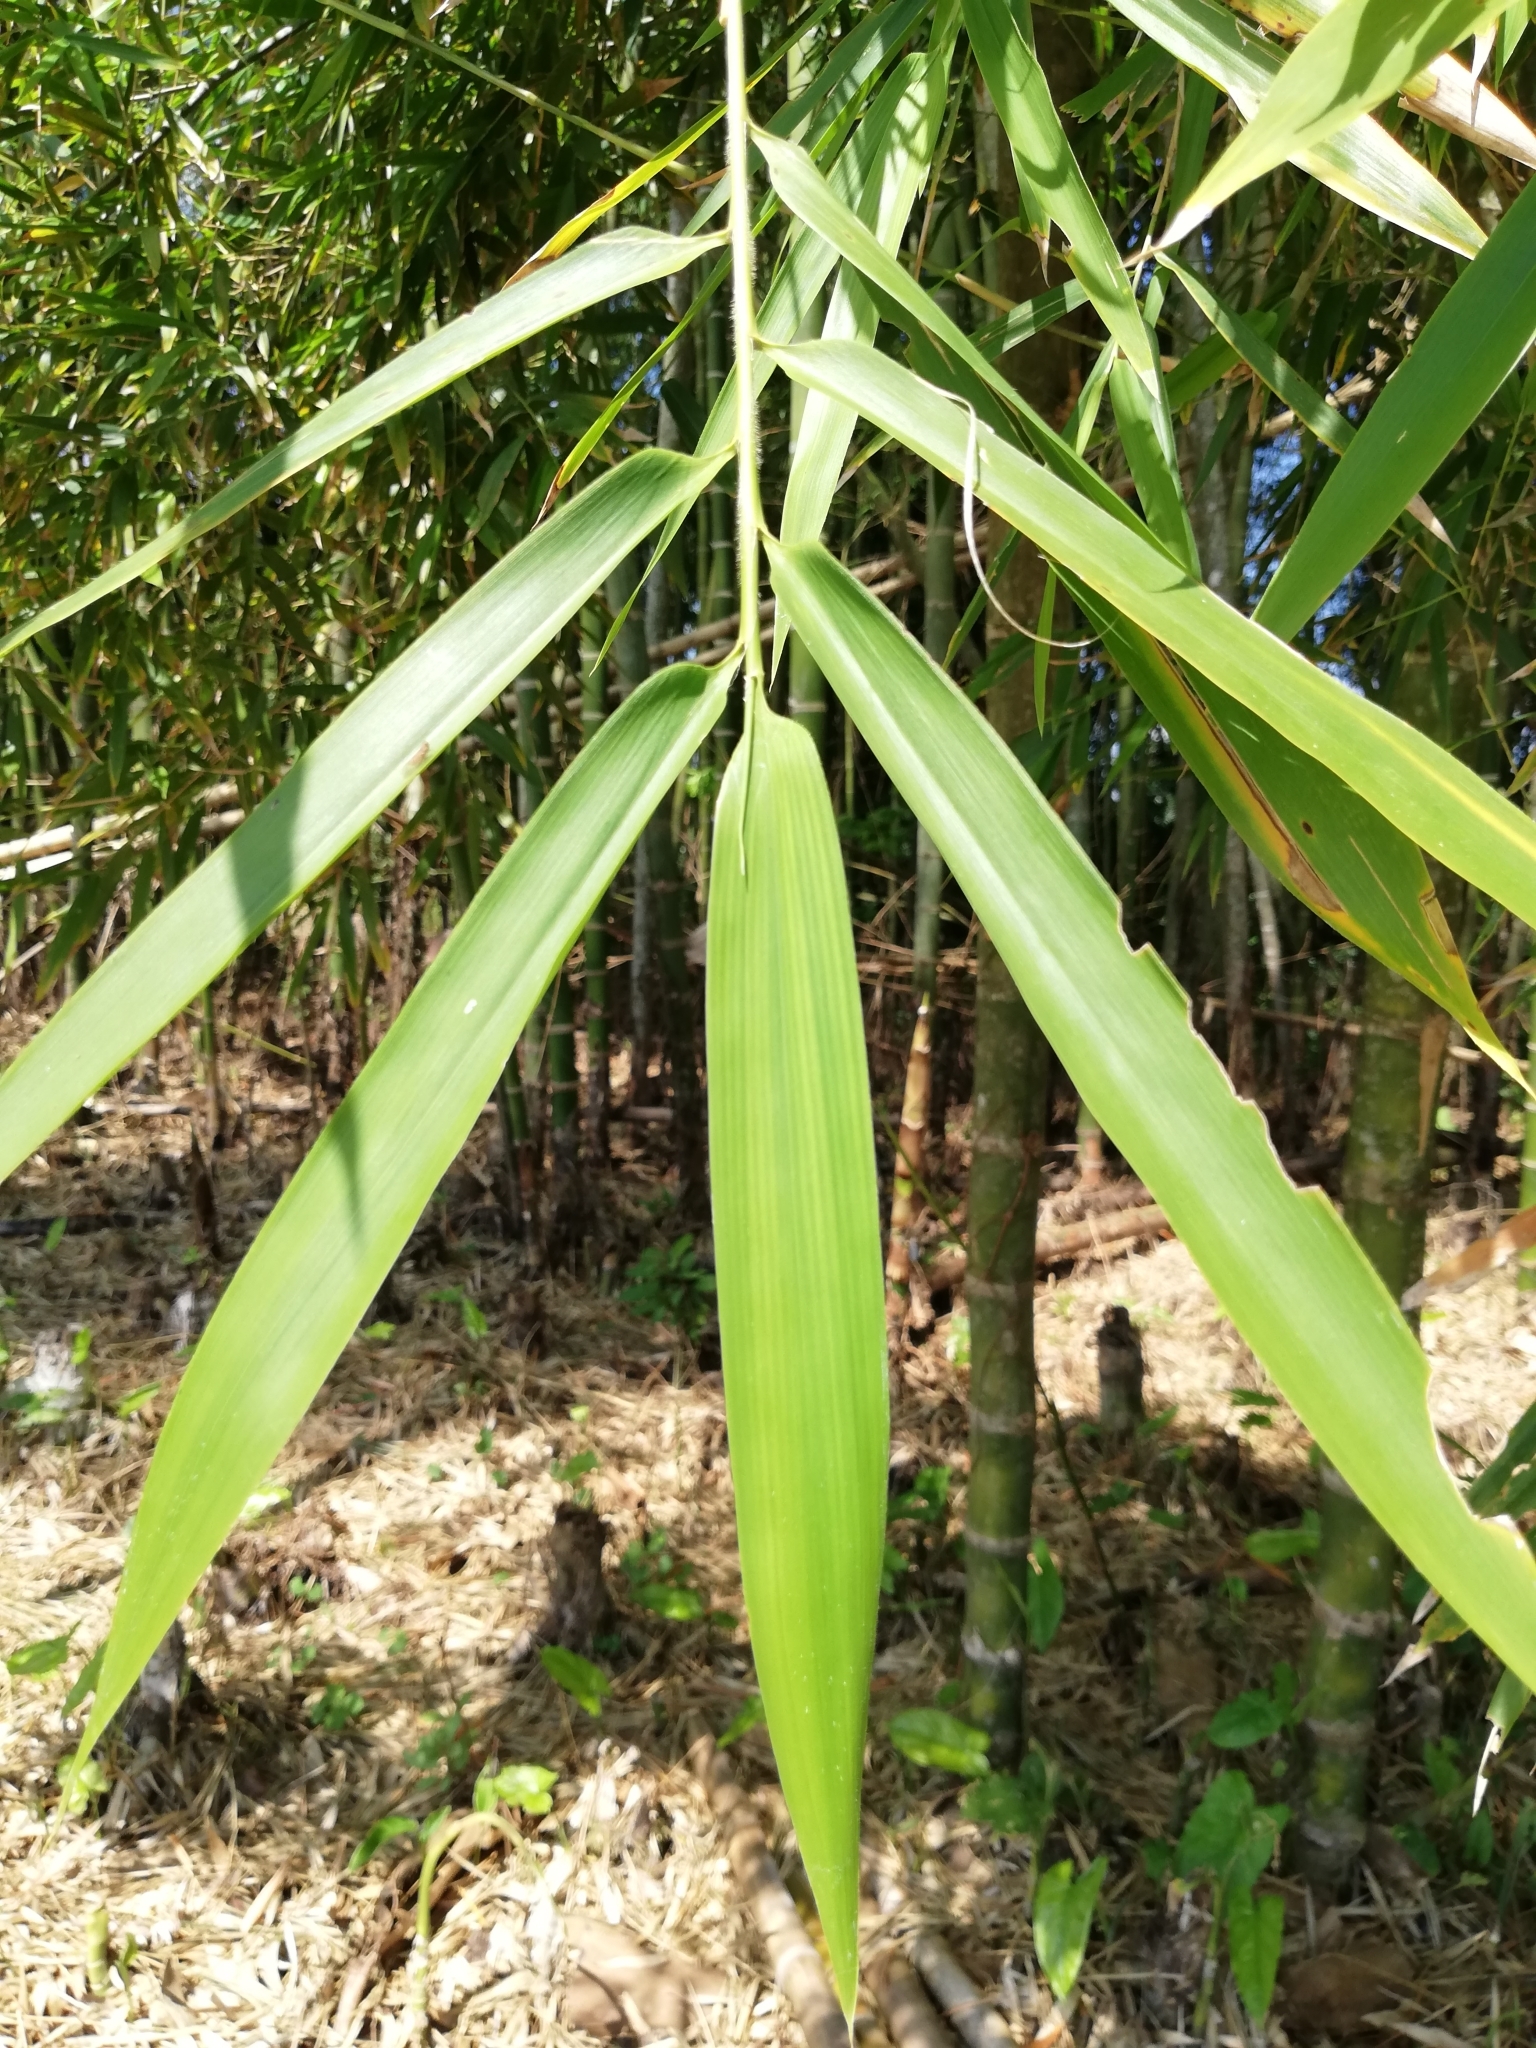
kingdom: Plantae
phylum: Tracheophyta
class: Liliopsida
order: Poales
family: Poaceae
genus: Guadua
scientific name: Guadua angustifolia
